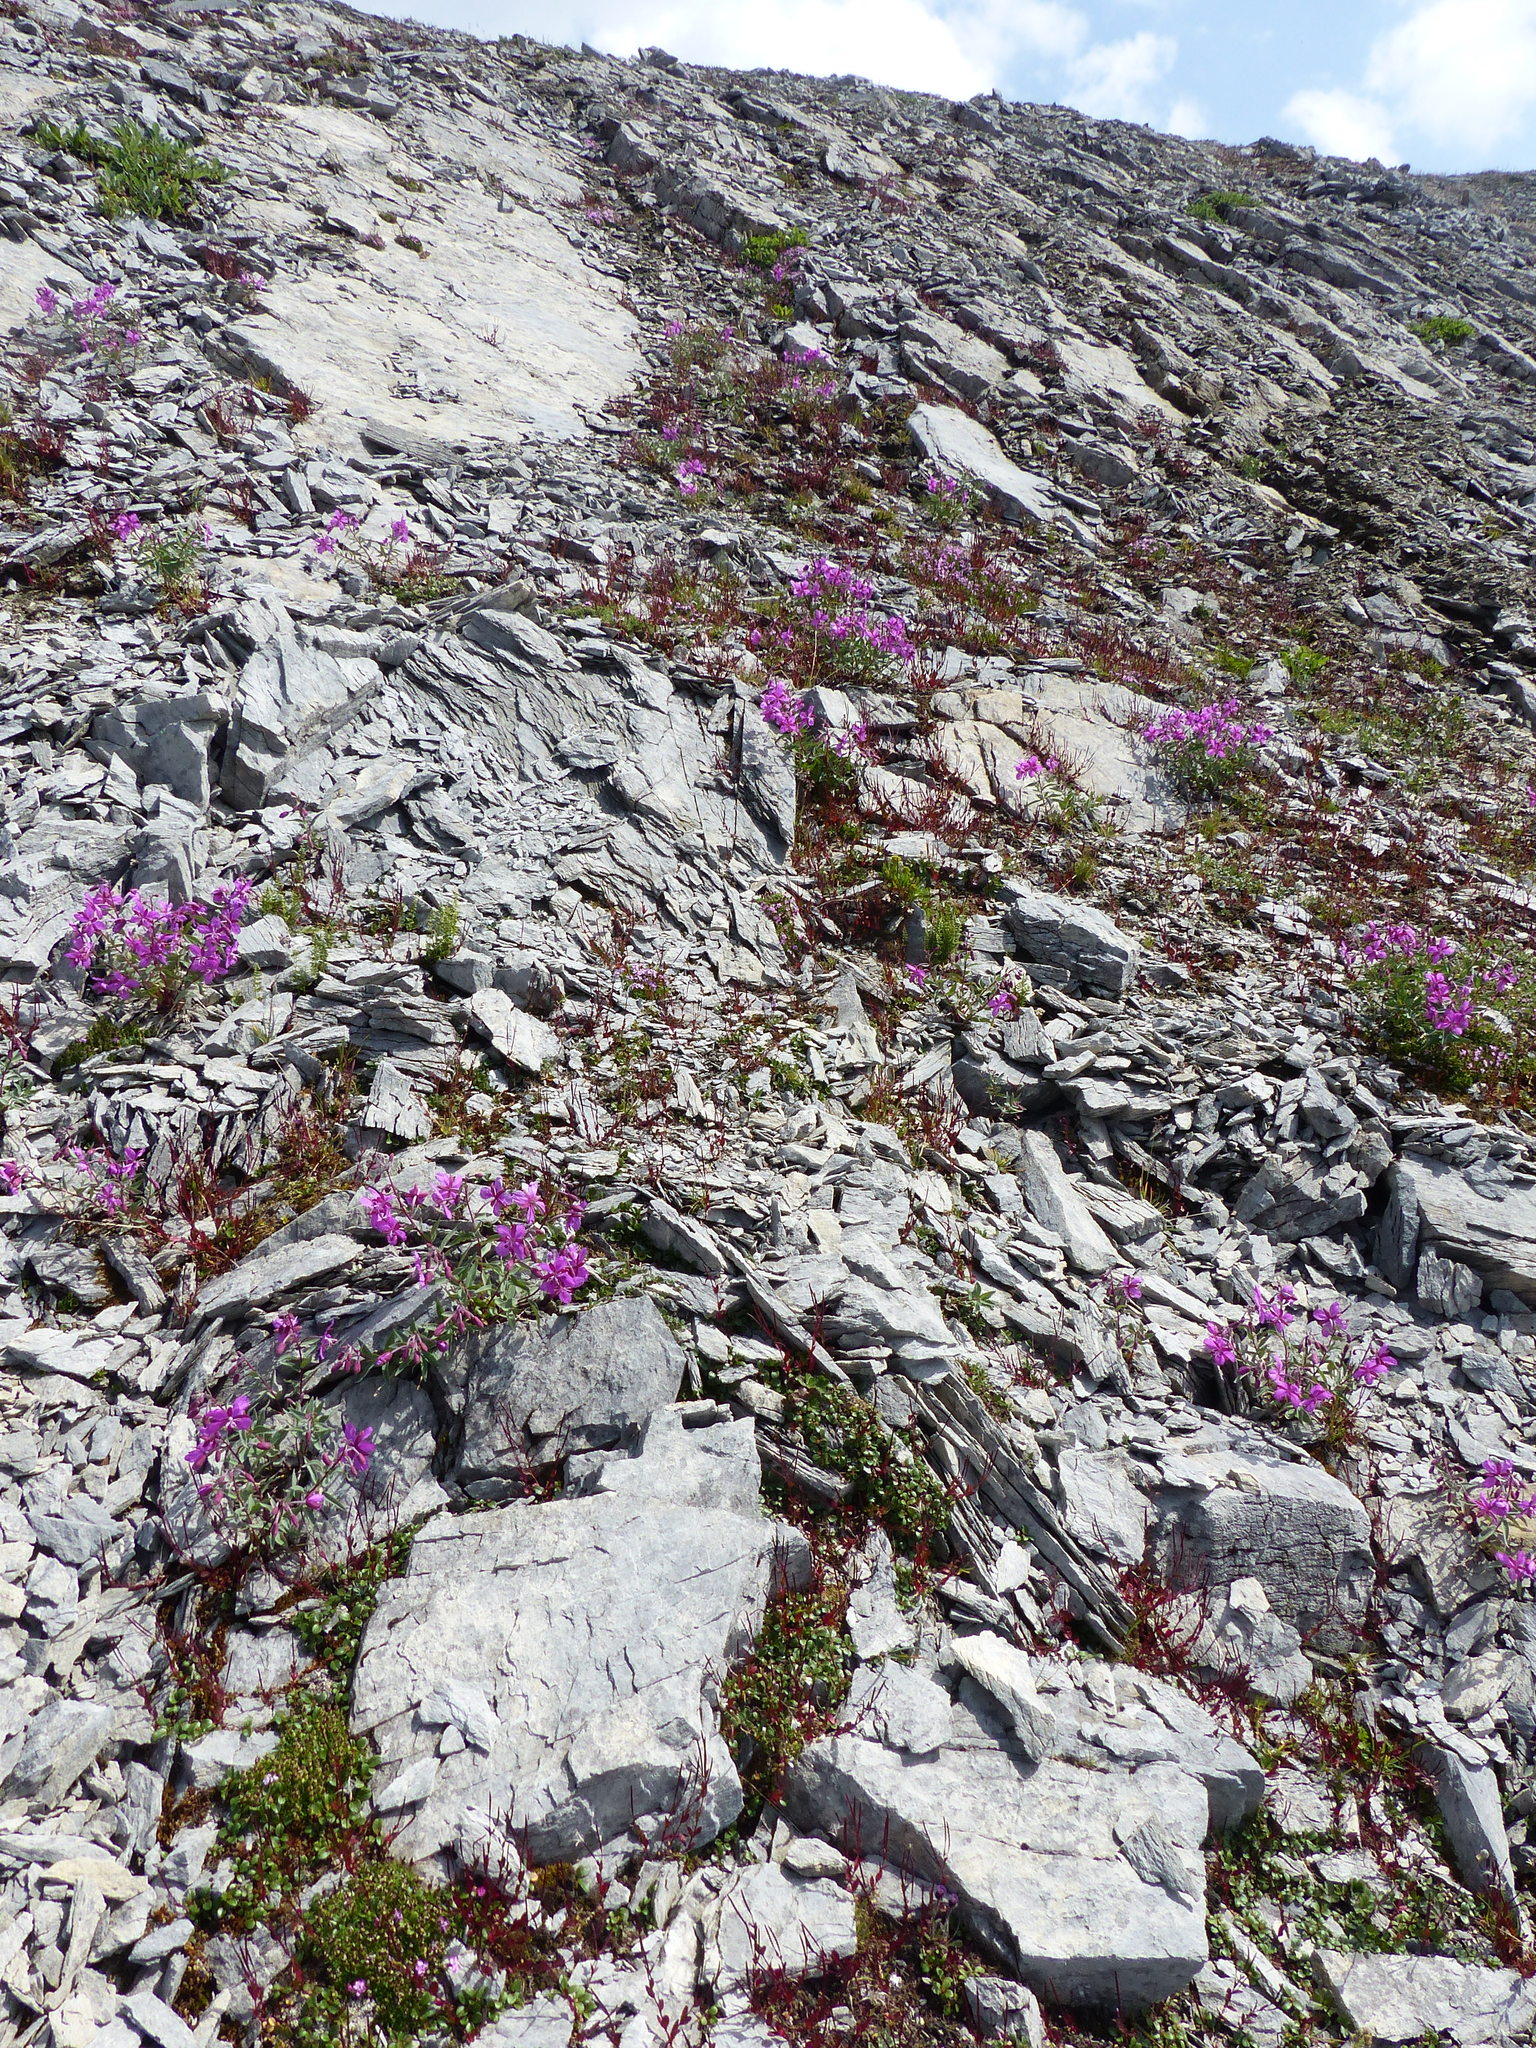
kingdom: Plantae
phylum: Tracheophyta
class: Magnoliopsida
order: Myrtales
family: Onagraceae
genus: Chamaenerion
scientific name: Chamaenerion latifolium
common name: Dwarf fireweed
